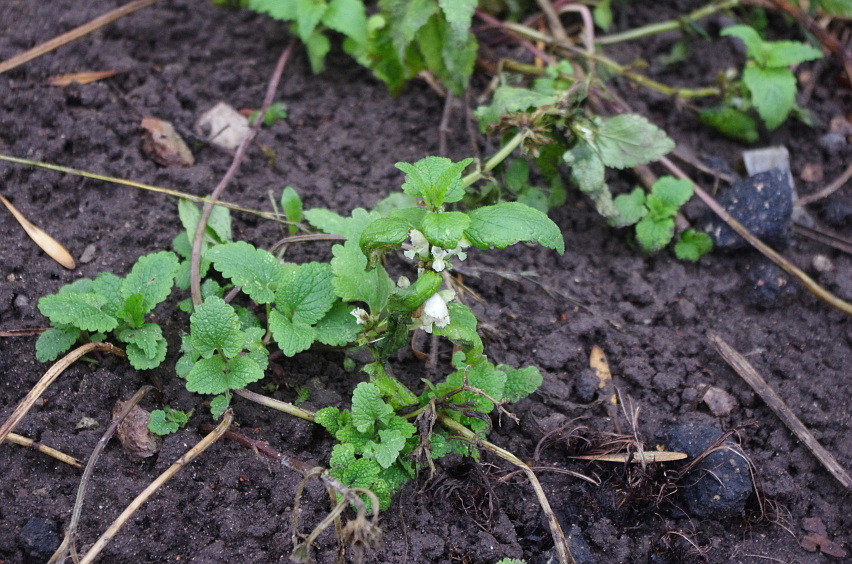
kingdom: Plantae
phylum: Tracheophyta
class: Magnoliopsida
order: Lamiales
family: Lamiaceae
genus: Lamium
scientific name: Lamium album
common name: White dead-nettle
